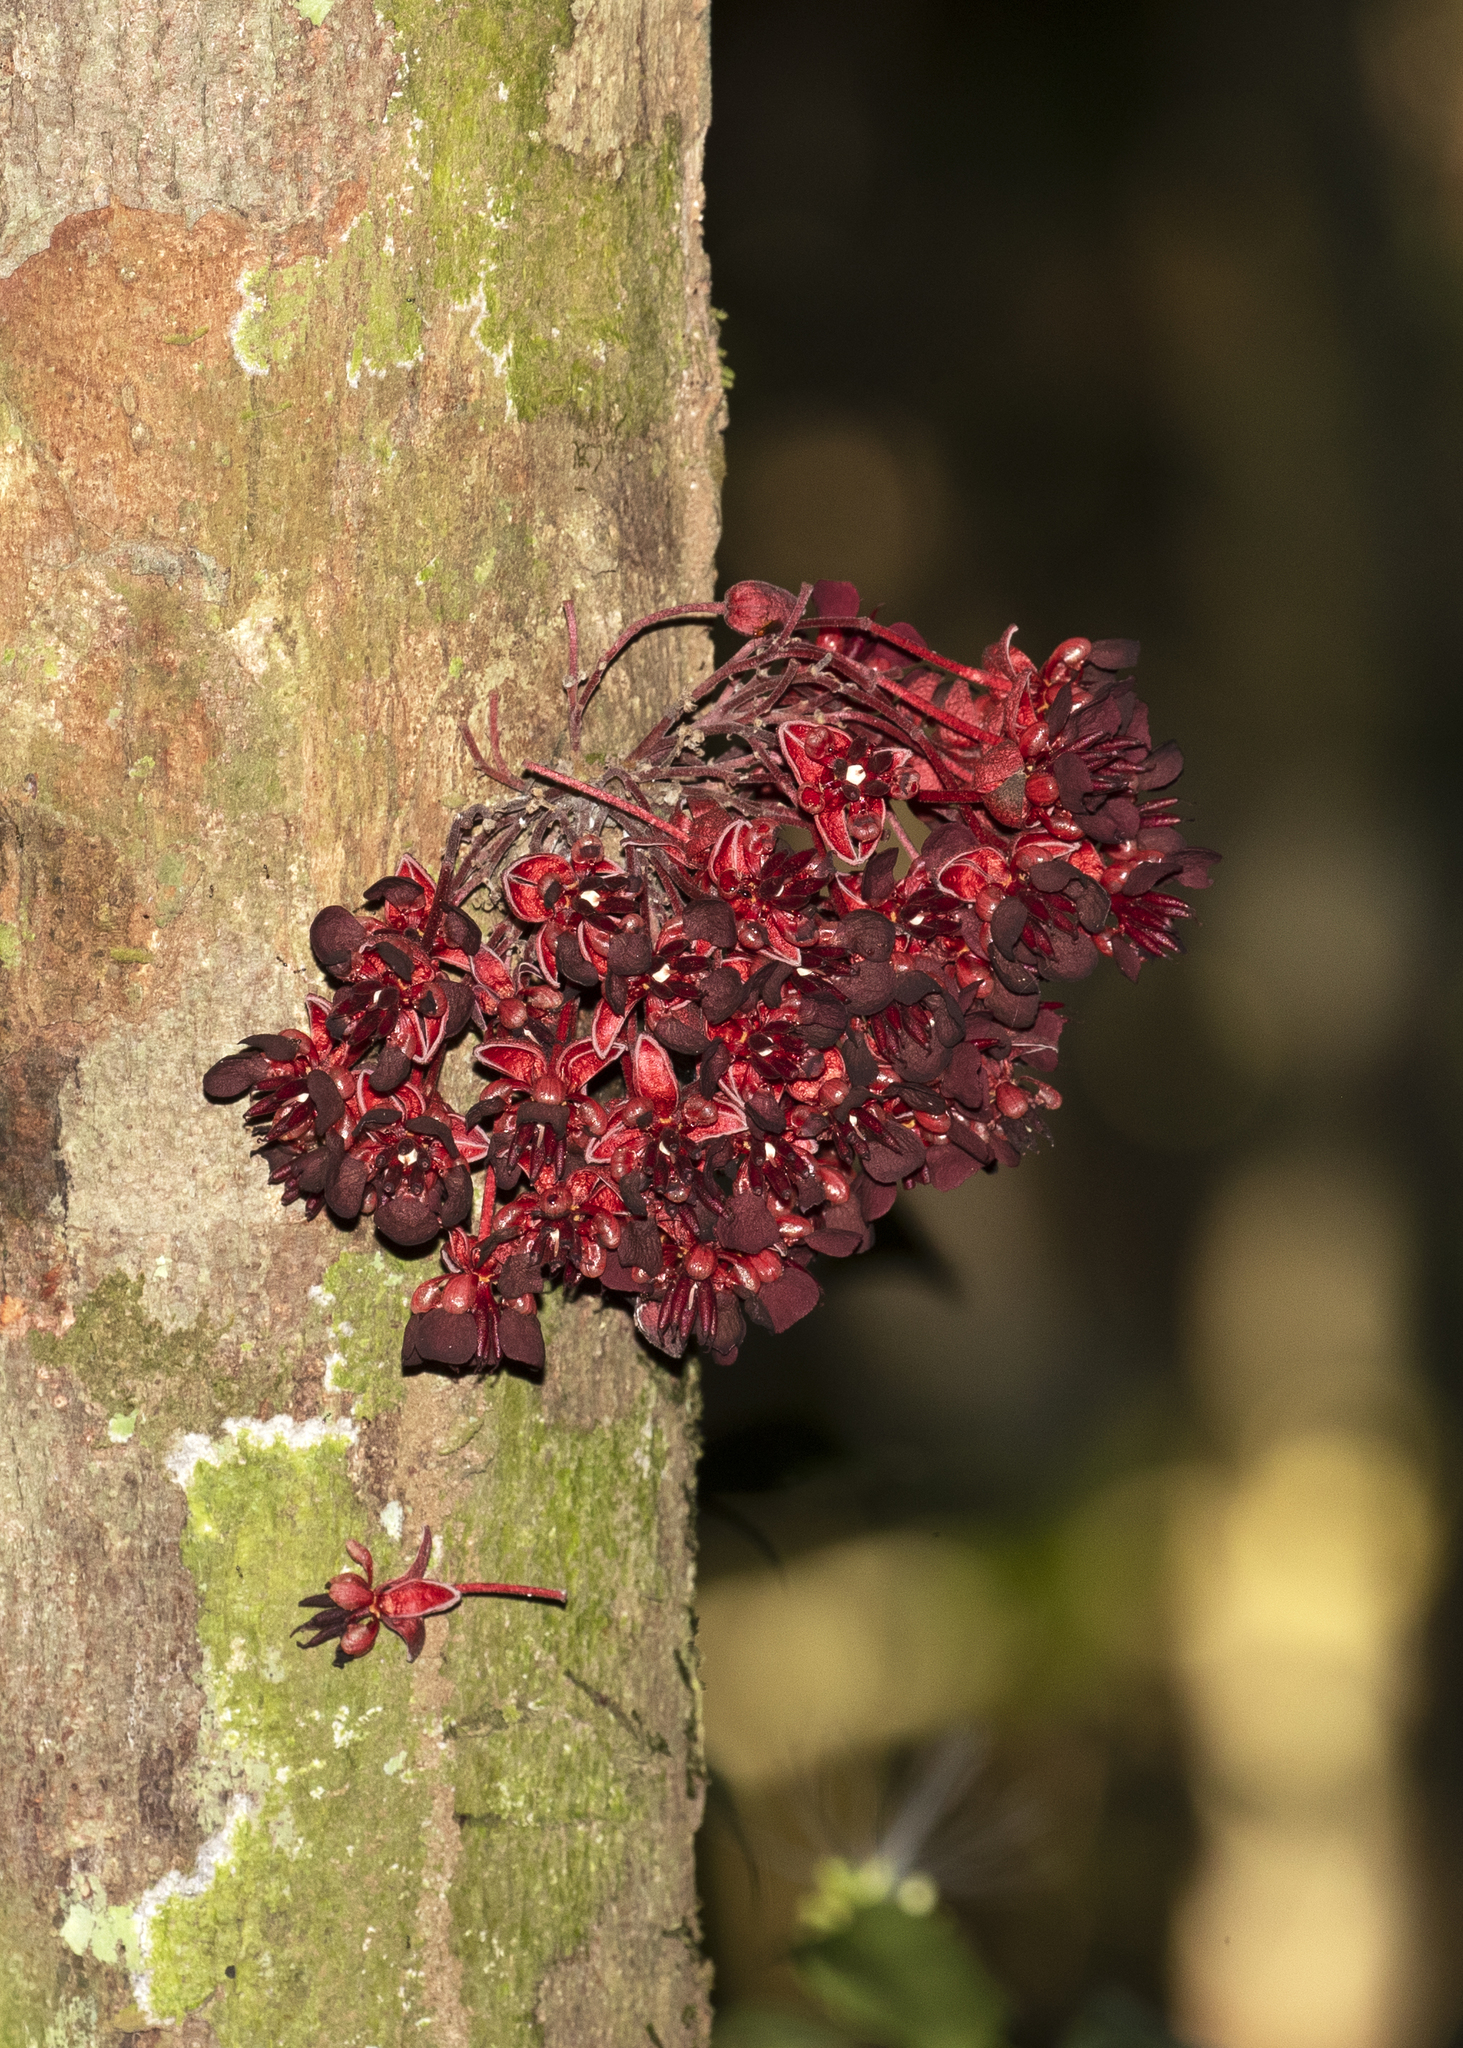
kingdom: Plantae
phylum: Tracheophyta
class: Magnoliopsida
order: Malvales
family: Malvaceae
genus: Theobroma
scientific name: Theobroma speciosum
